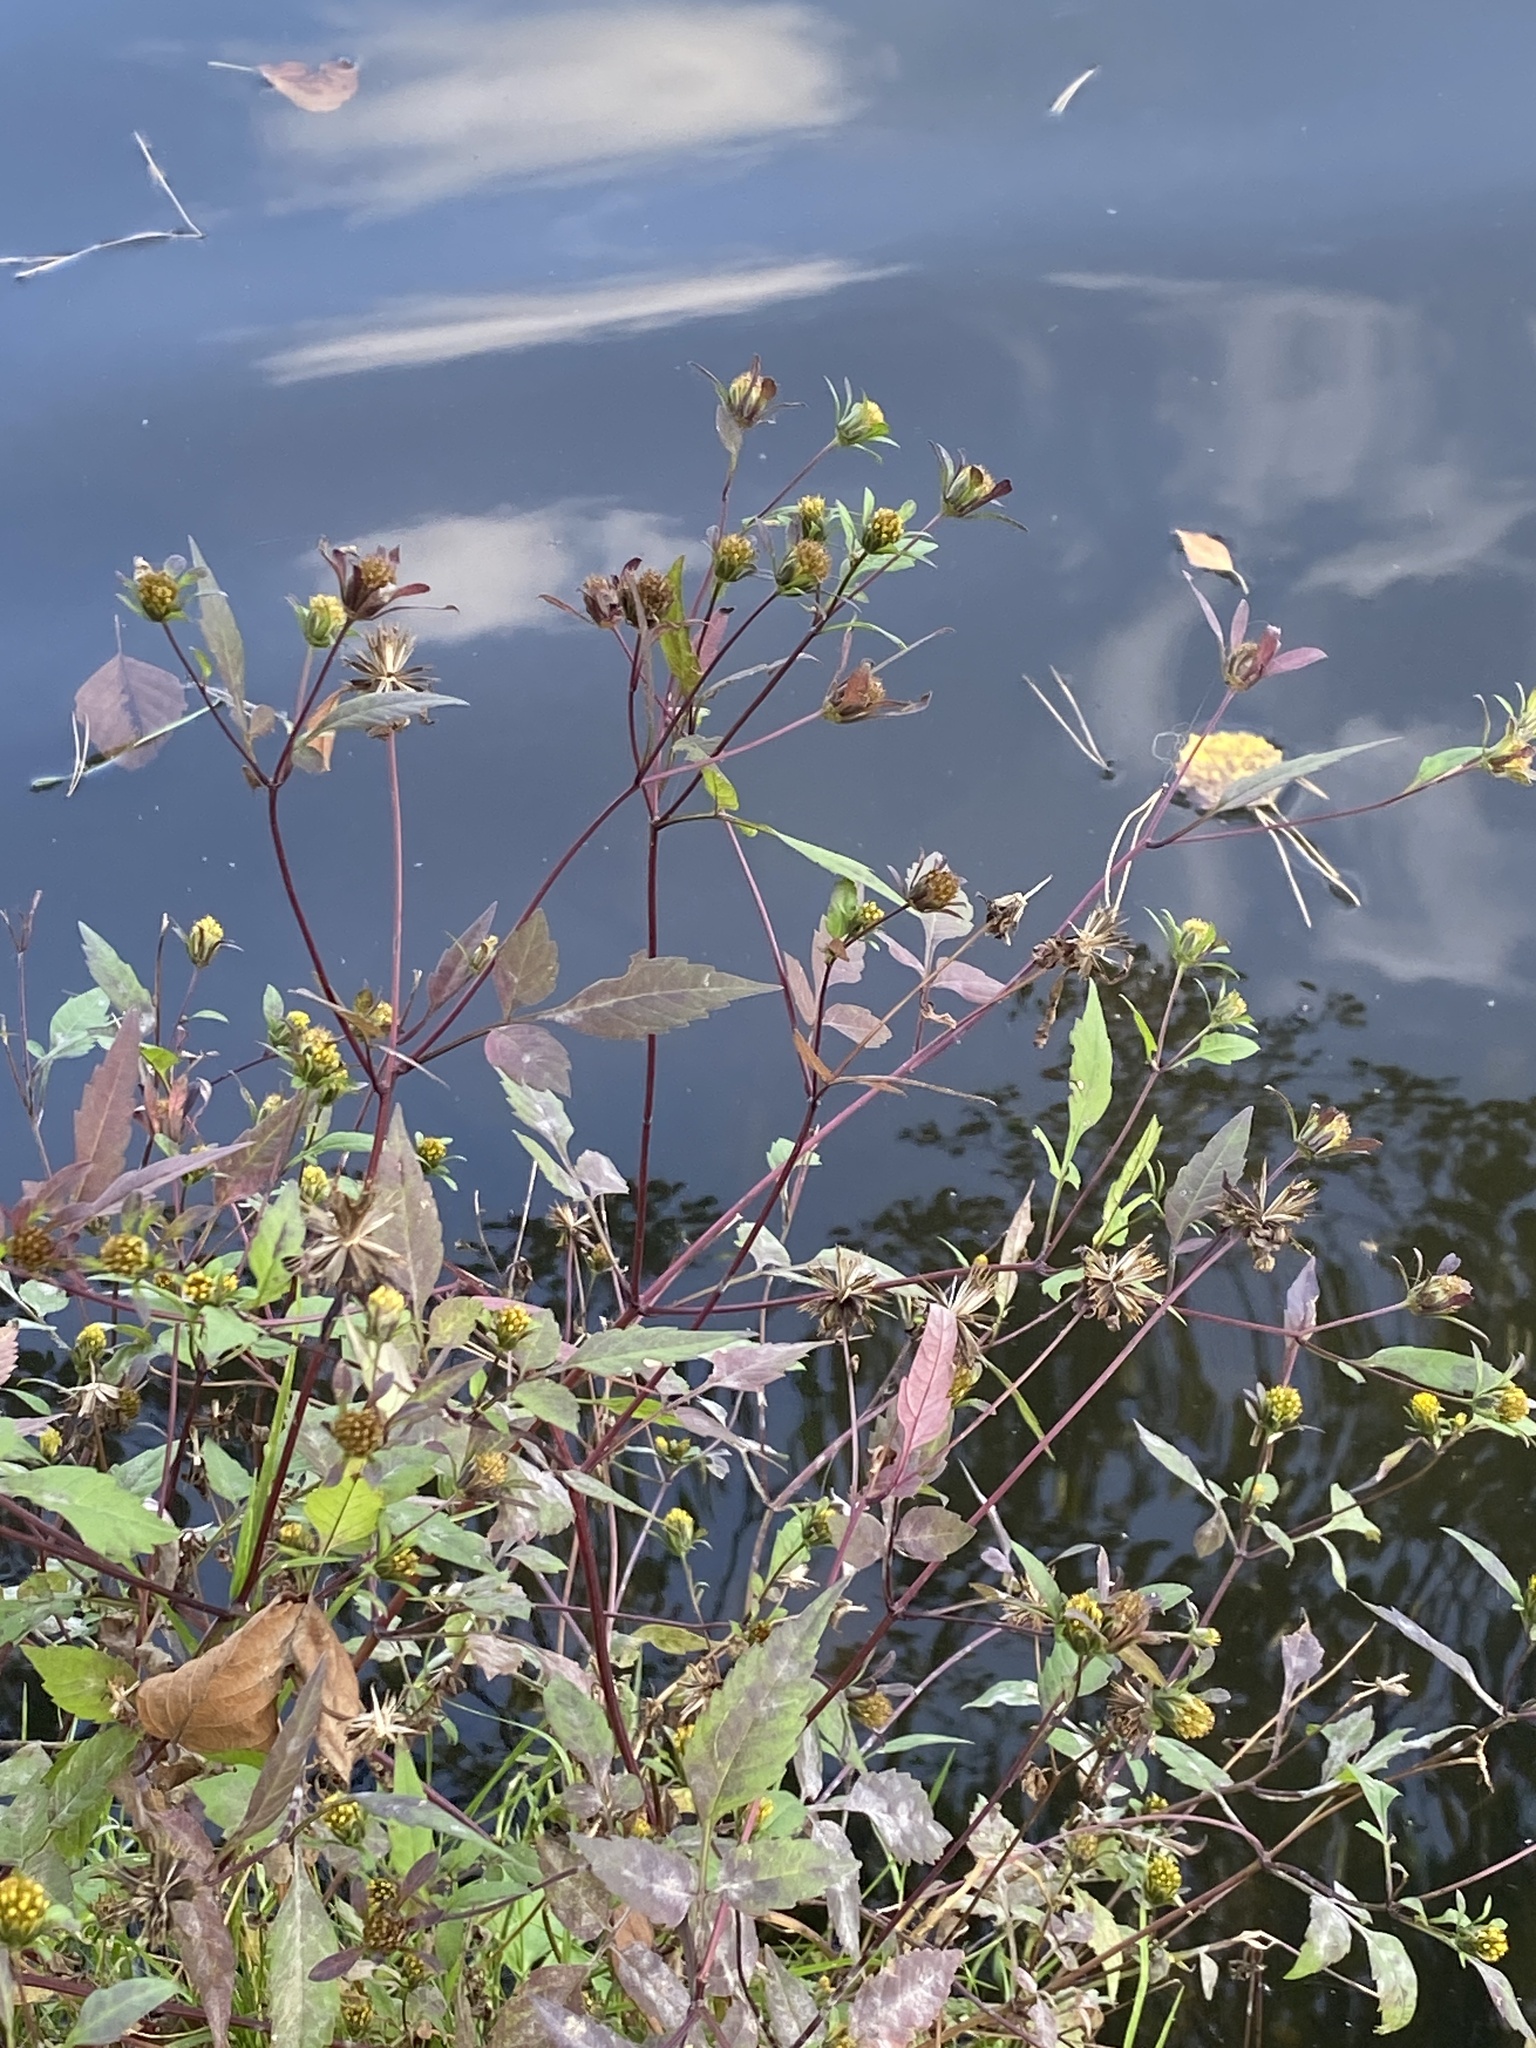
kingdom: Plantae
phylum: Tracheophyta
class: Magnoliopsida
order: Asterales
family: Asteraceae
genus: Bidens
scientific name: Bidens frondosa
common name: Beggarticks
